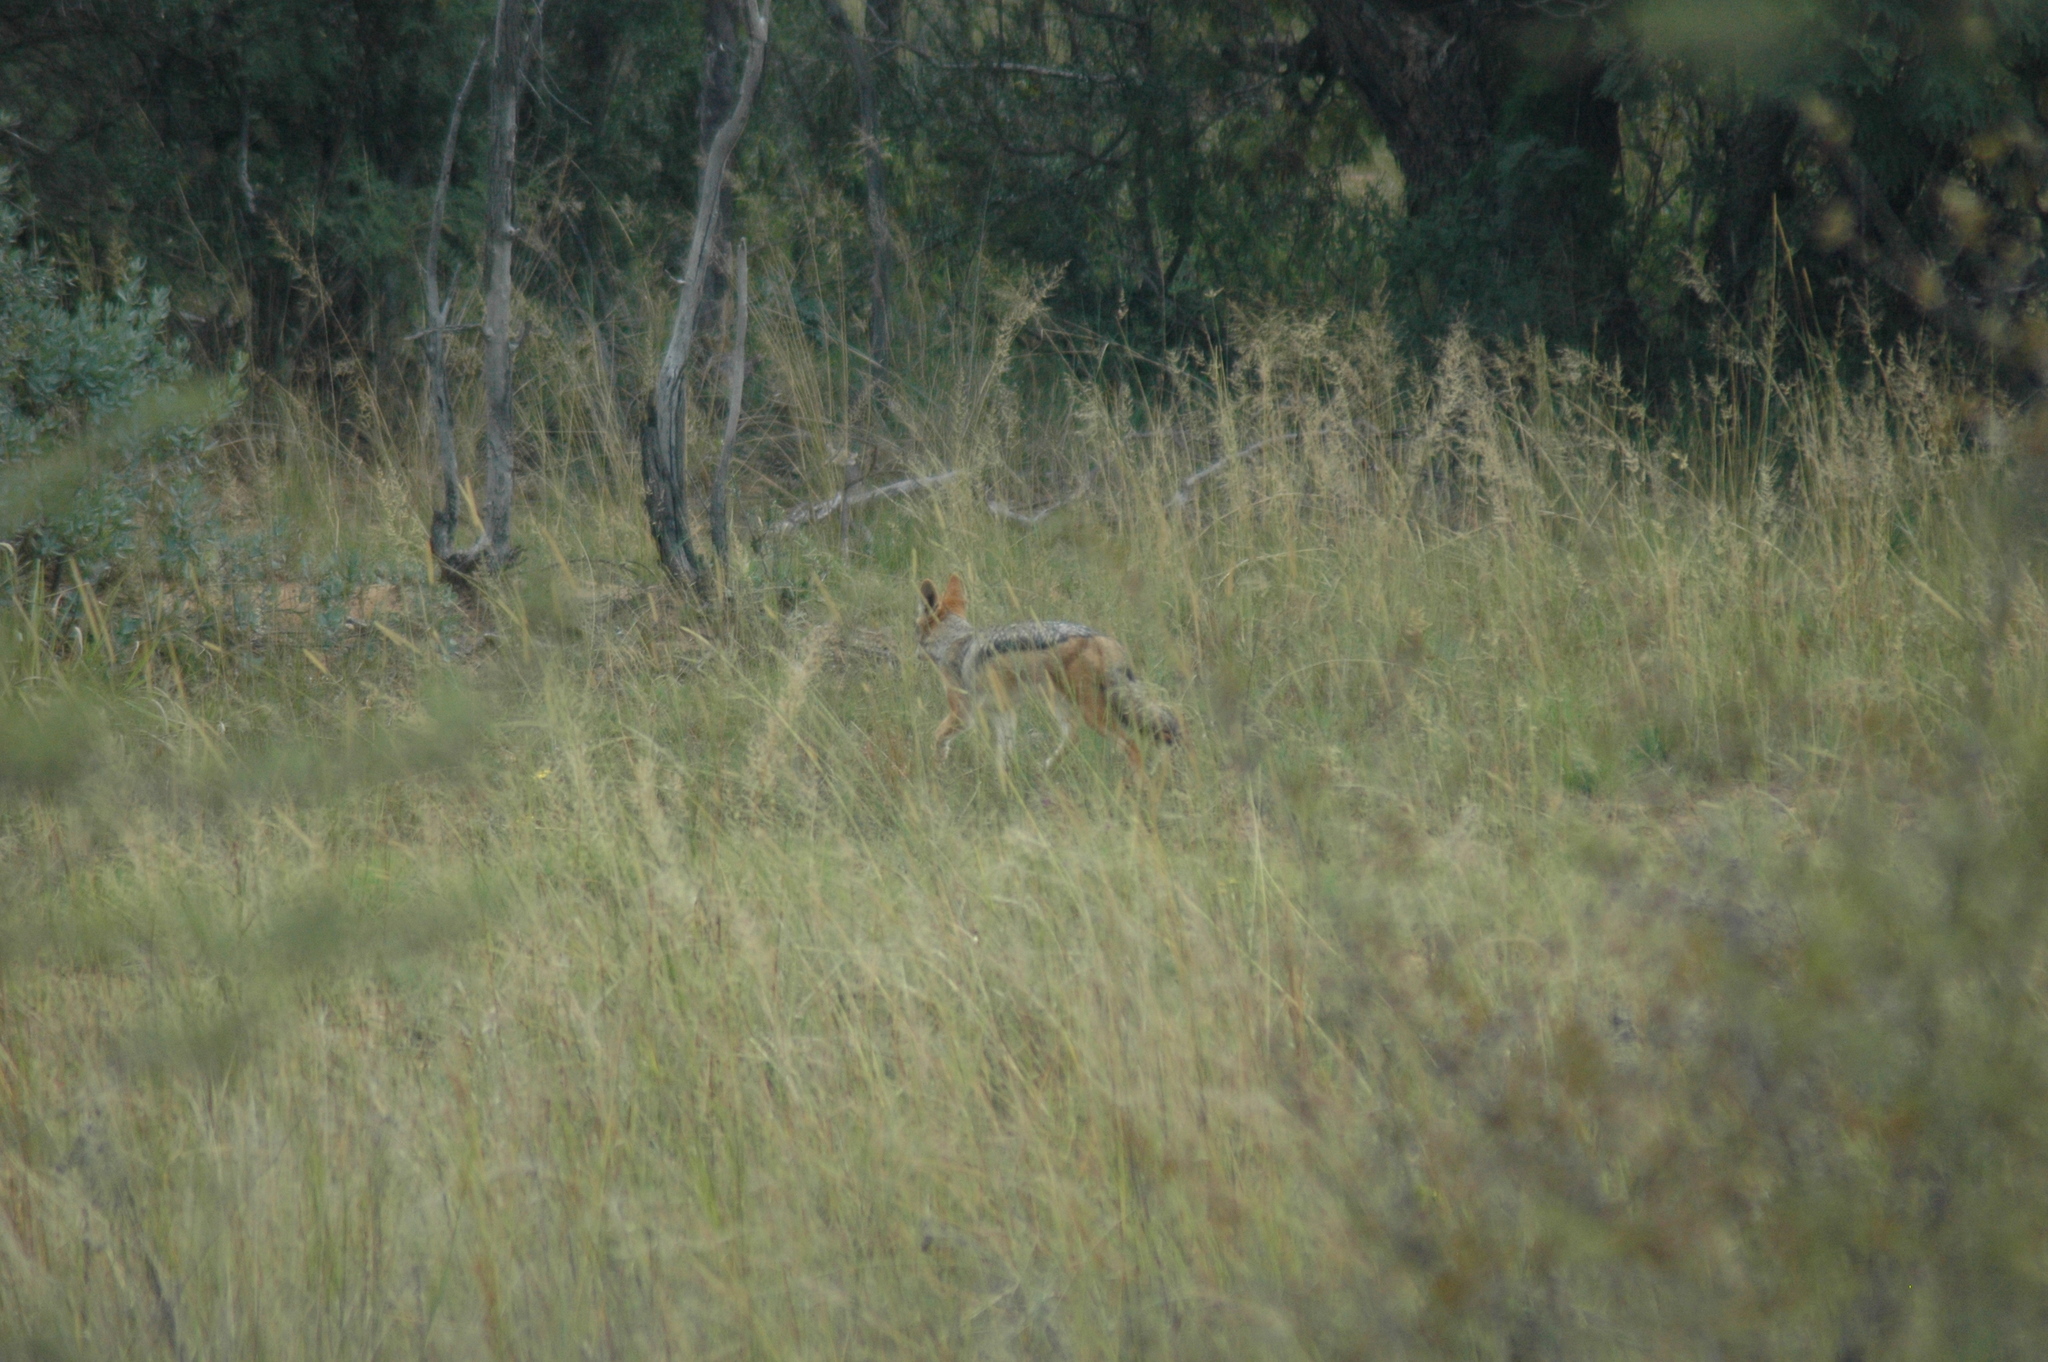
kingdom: Animalia
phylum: Chordata
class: Mammalia
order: Carnivora
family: Canidae
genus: Lupulella
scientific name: Lupulella
